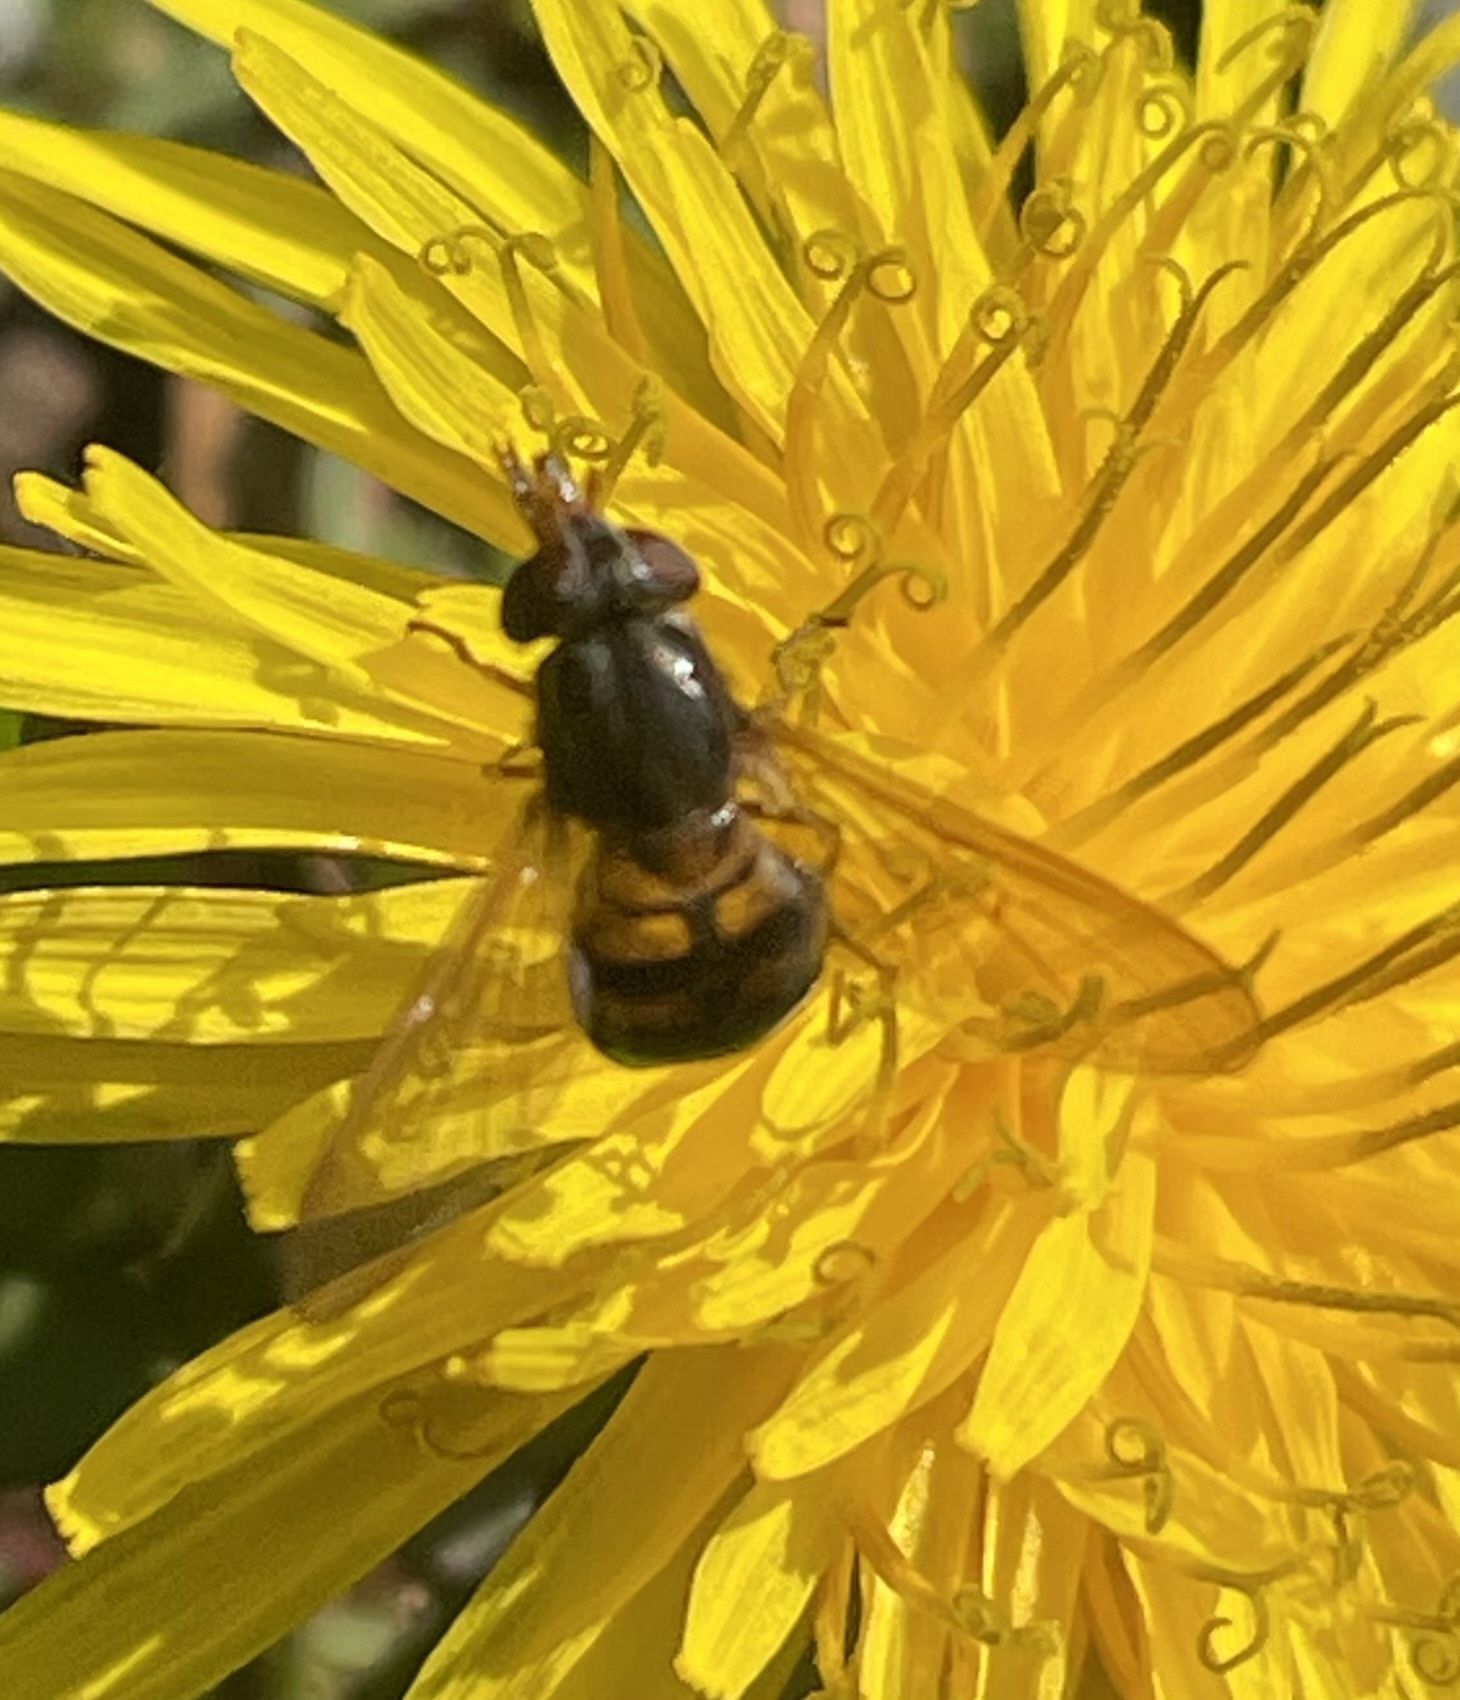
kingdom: Animalia
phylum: Arthropoda
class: Insecta
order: Diptera
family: Syrphidae
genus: Rhingia
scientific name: Rhingia nasica
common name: American snout fly
